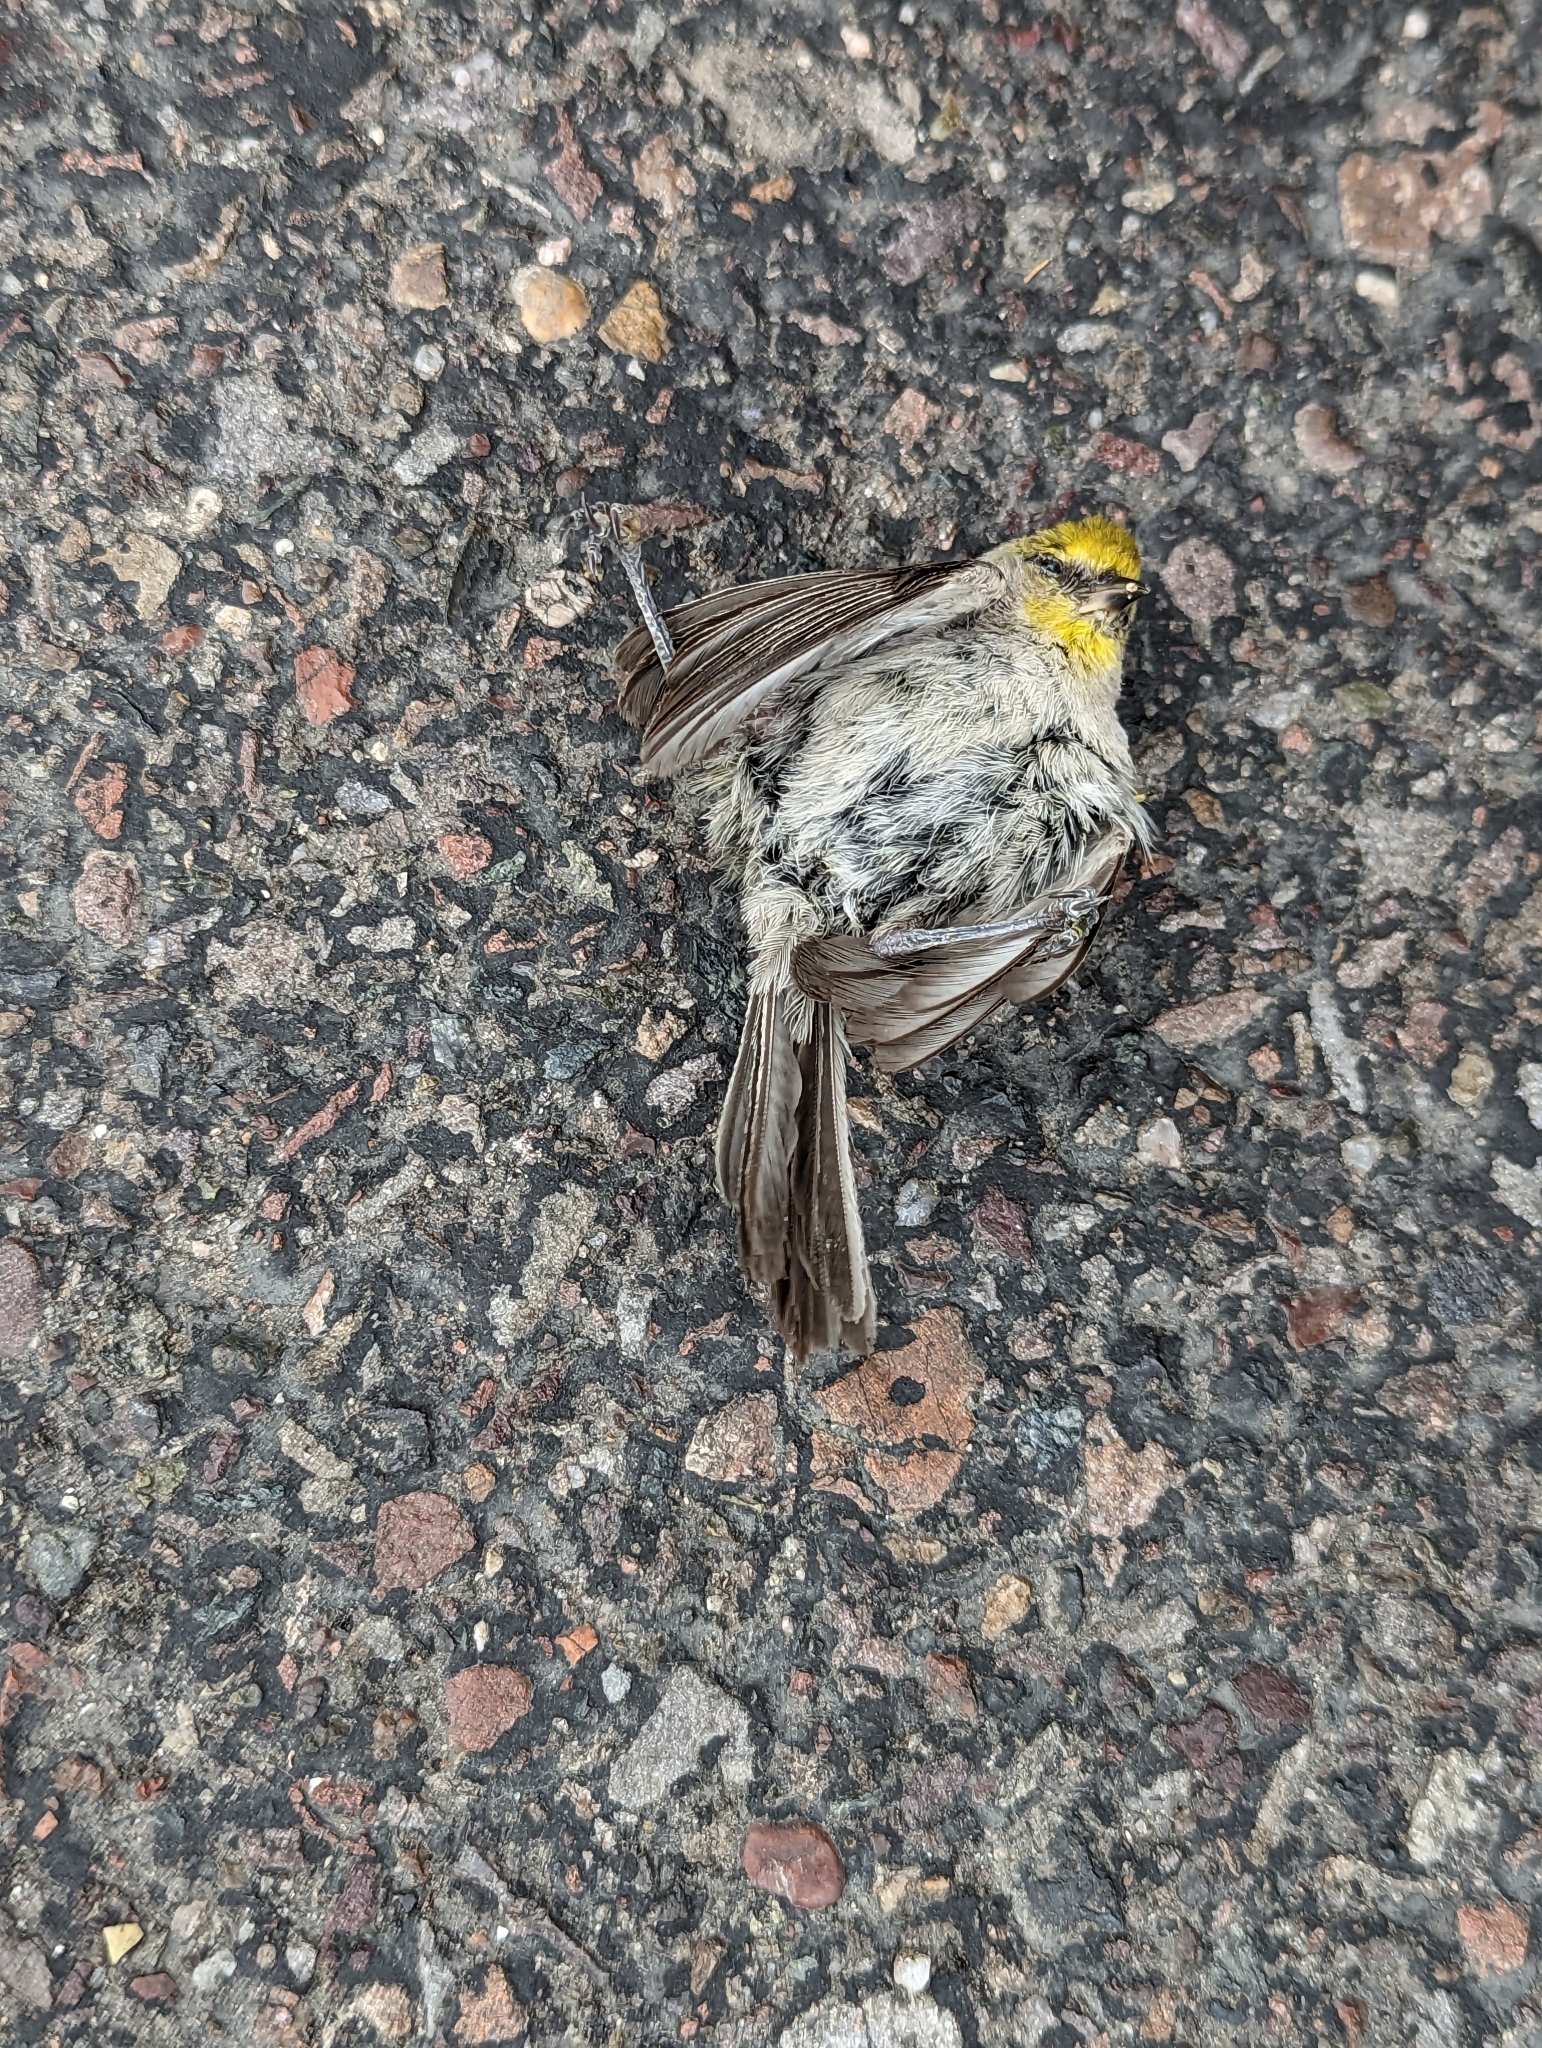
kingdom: Animalia
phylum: Chordata
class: Aves
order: Passeriformes
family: Remizidae
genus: Auriparus
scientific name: Auriparus flaviceps
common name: Verdin
